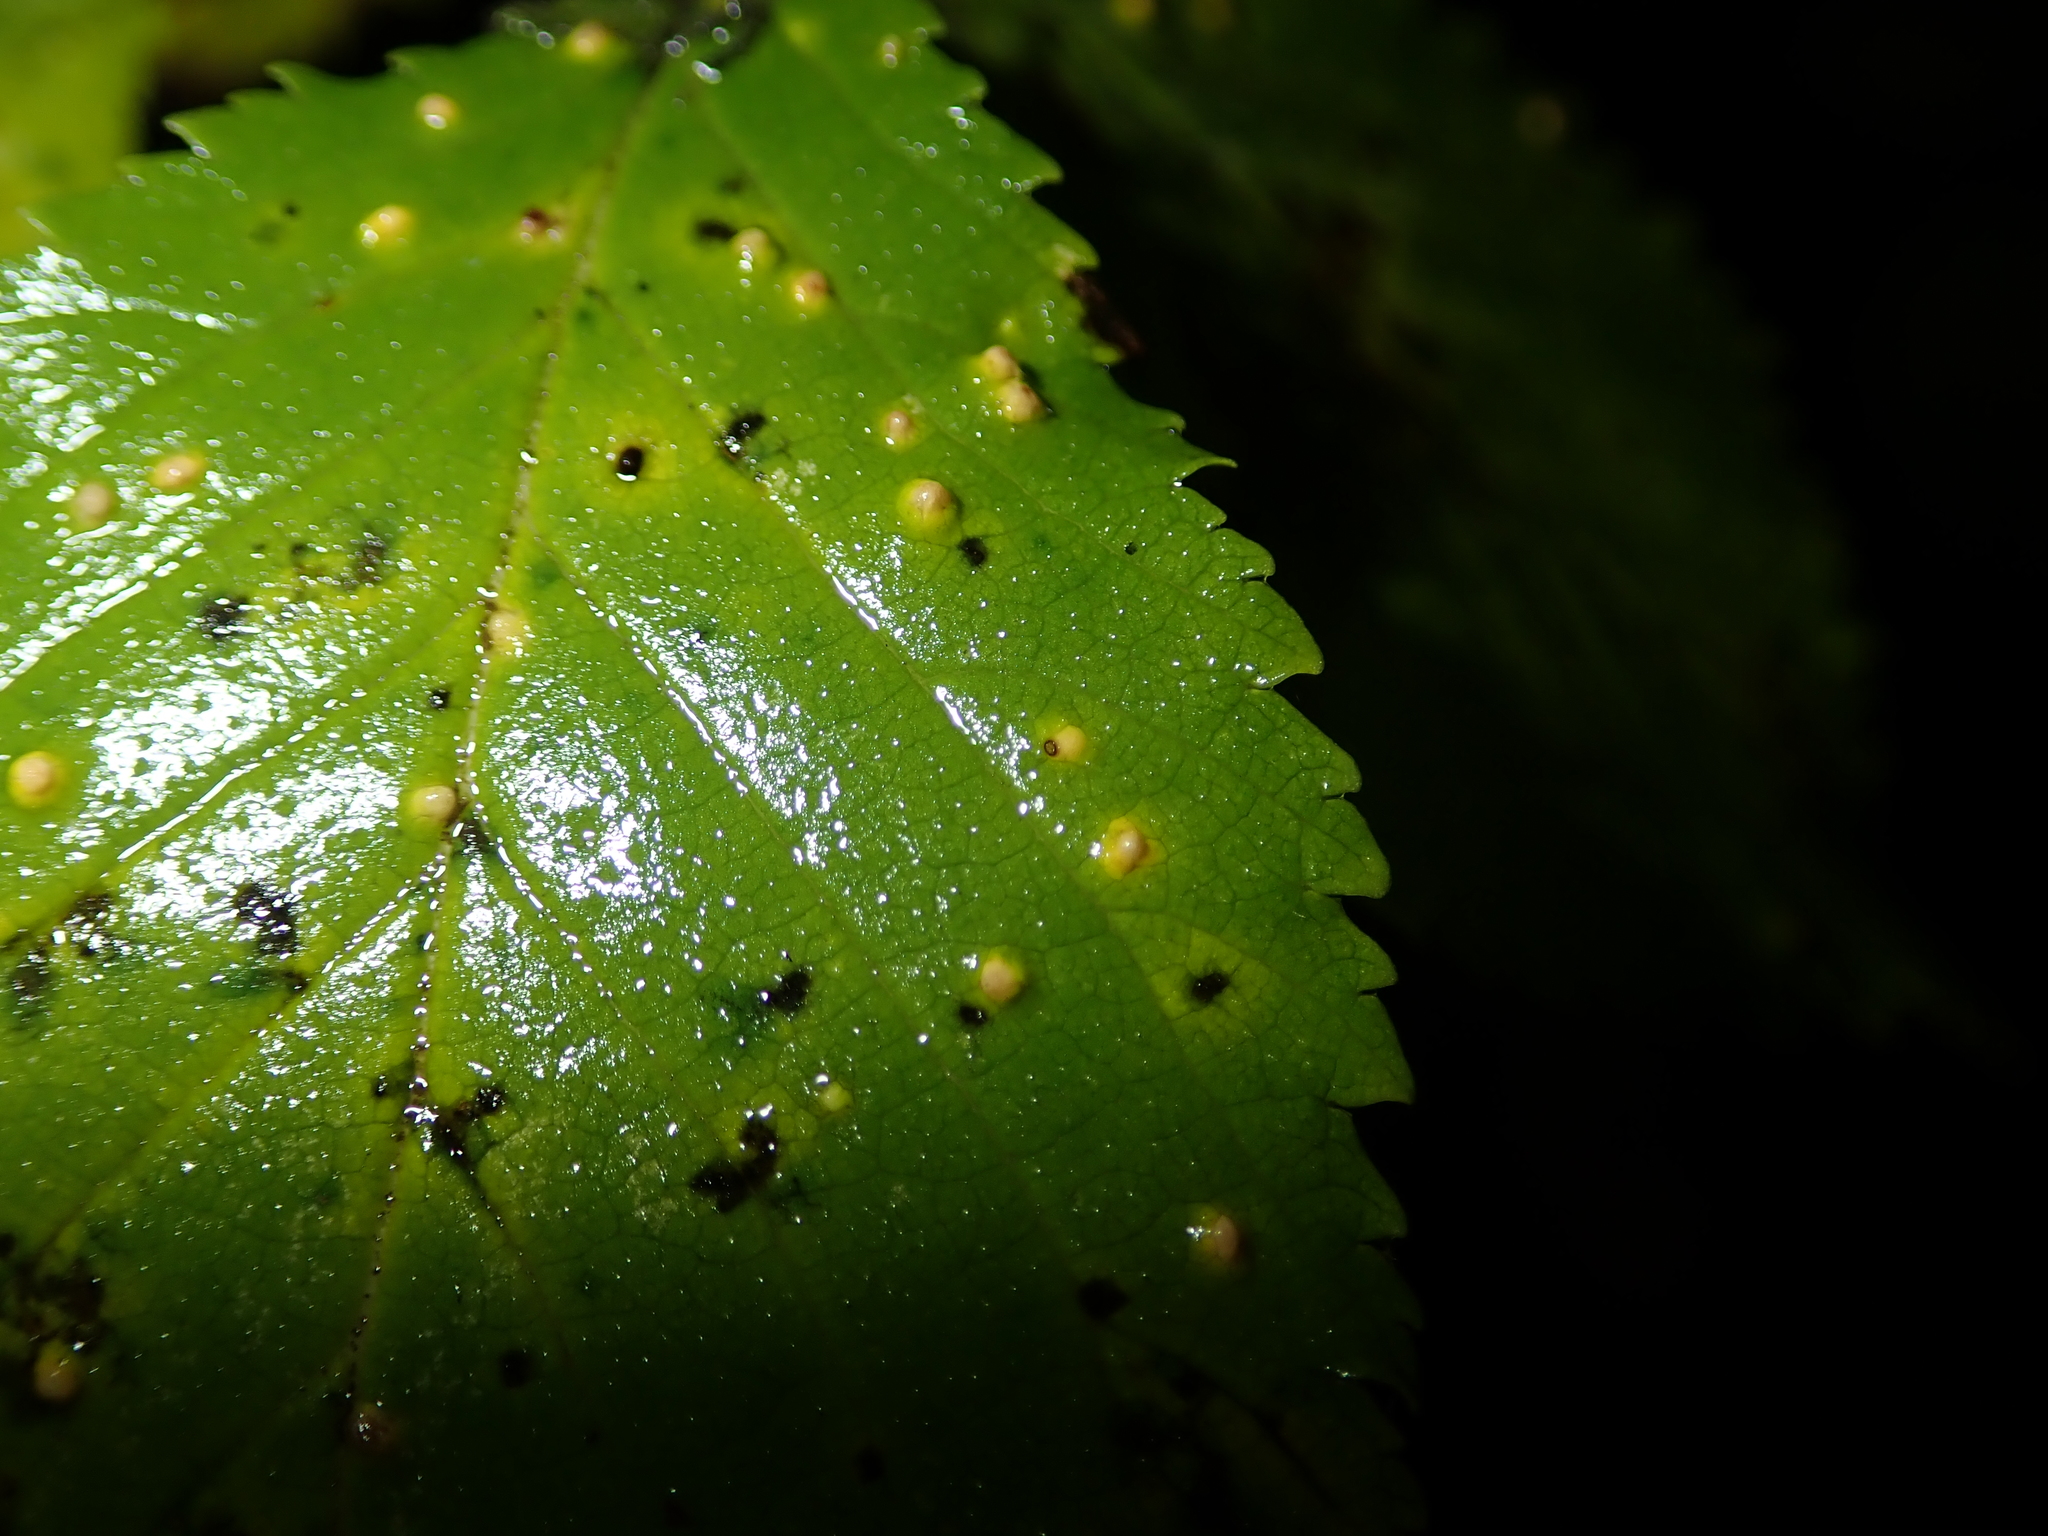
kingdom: Animalia
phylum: Arthropoda
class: Arachnida
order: Trombidiformes
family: Eriophyidae
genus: Aceria
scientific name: Aceria brevipunctata
